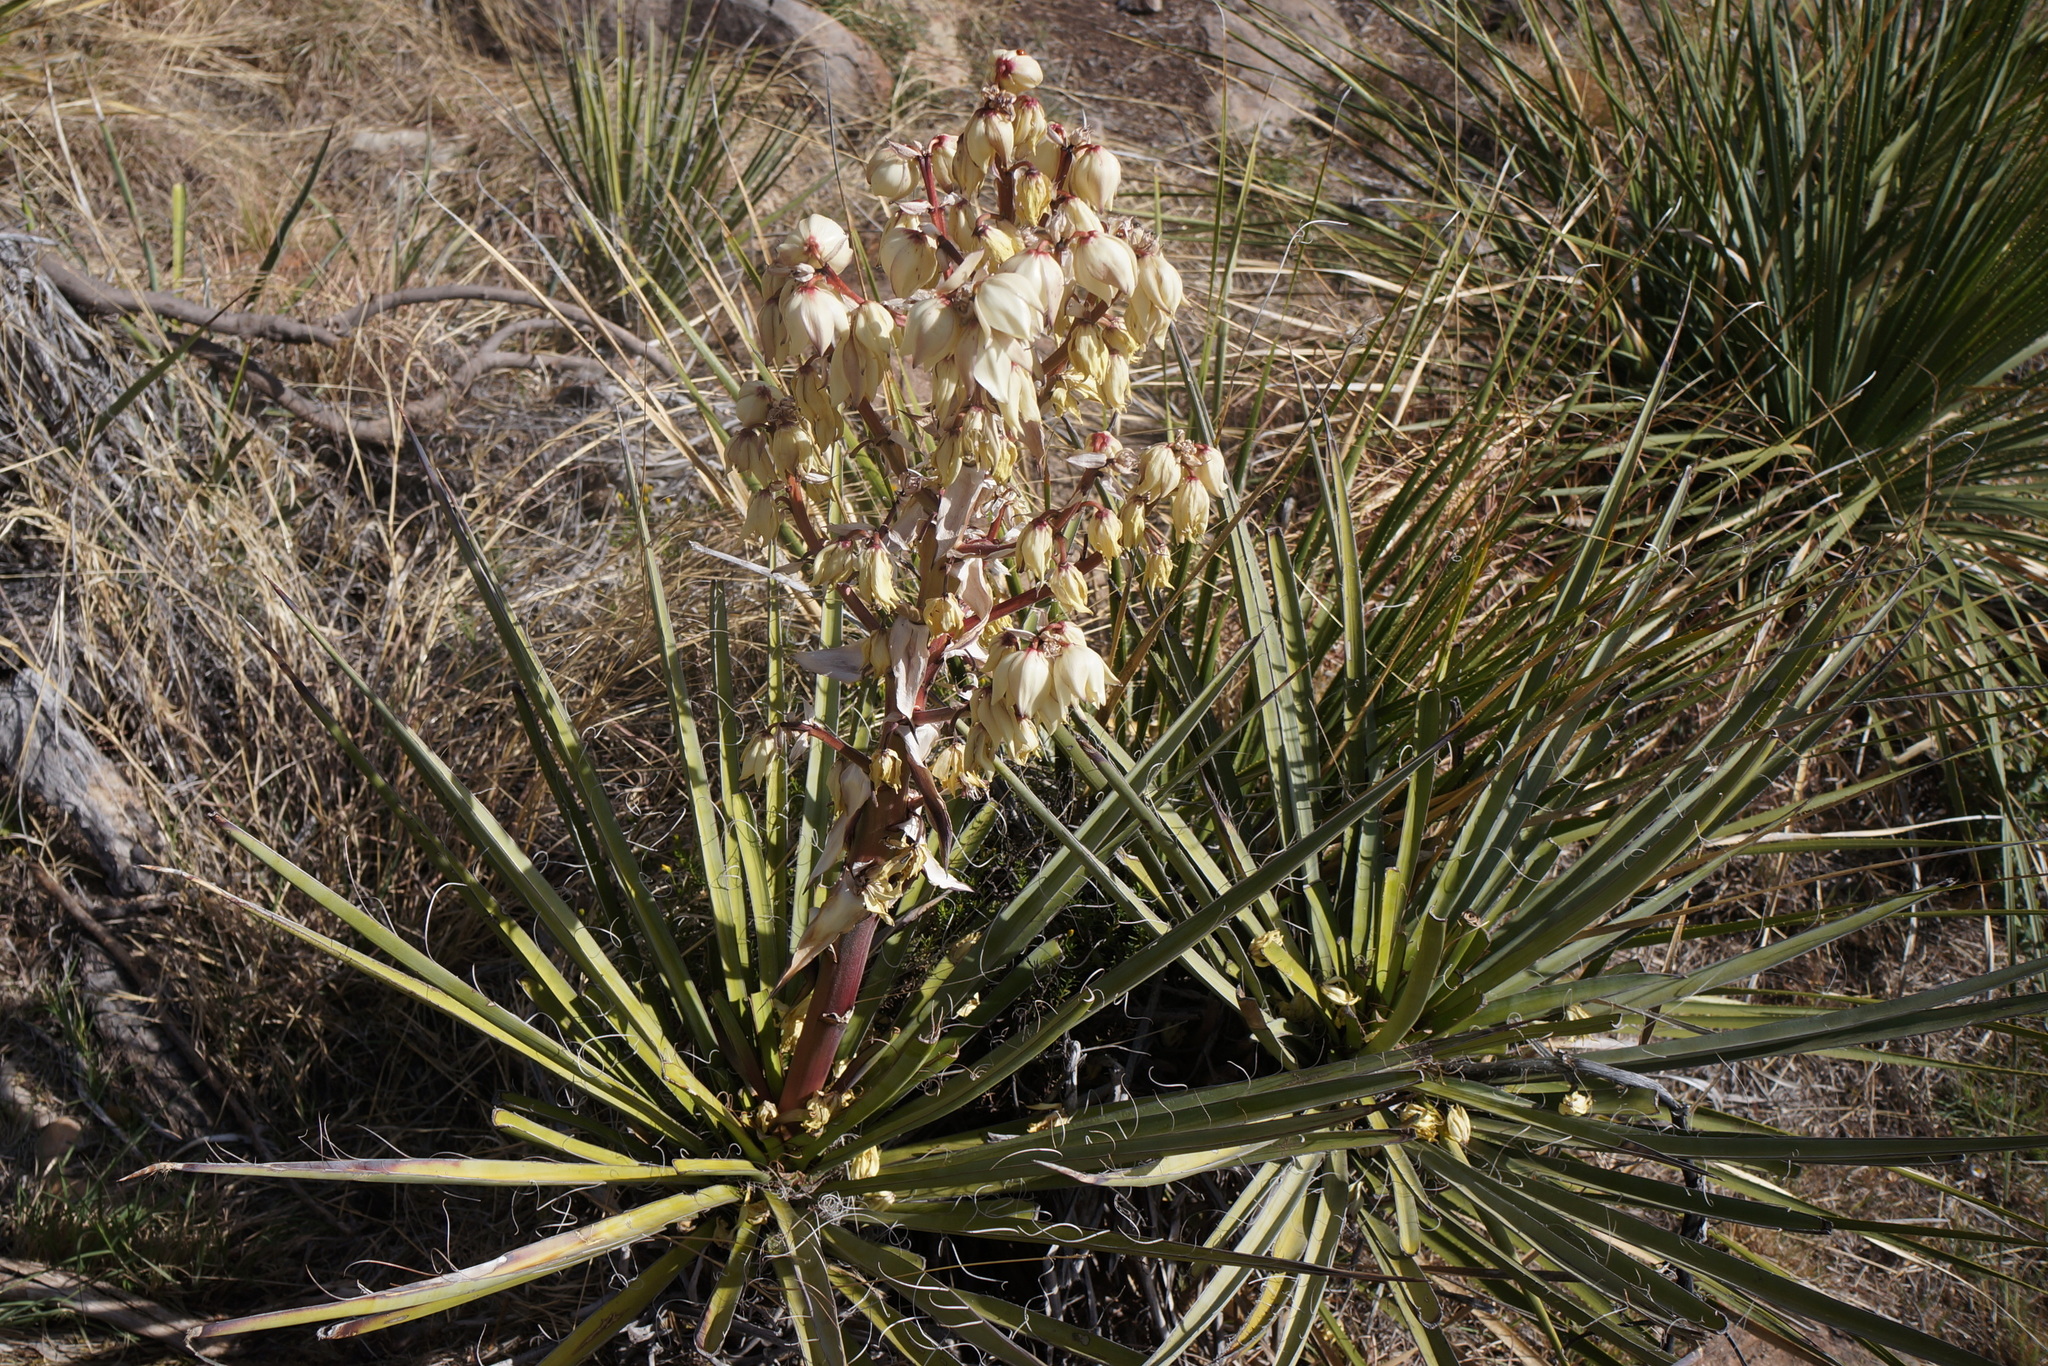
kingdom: Plantae
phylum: Tracheophyta
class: Liliopsida
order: Asparagales
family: Asparagaceae
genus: Yucca
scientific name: Yucca treculiana
